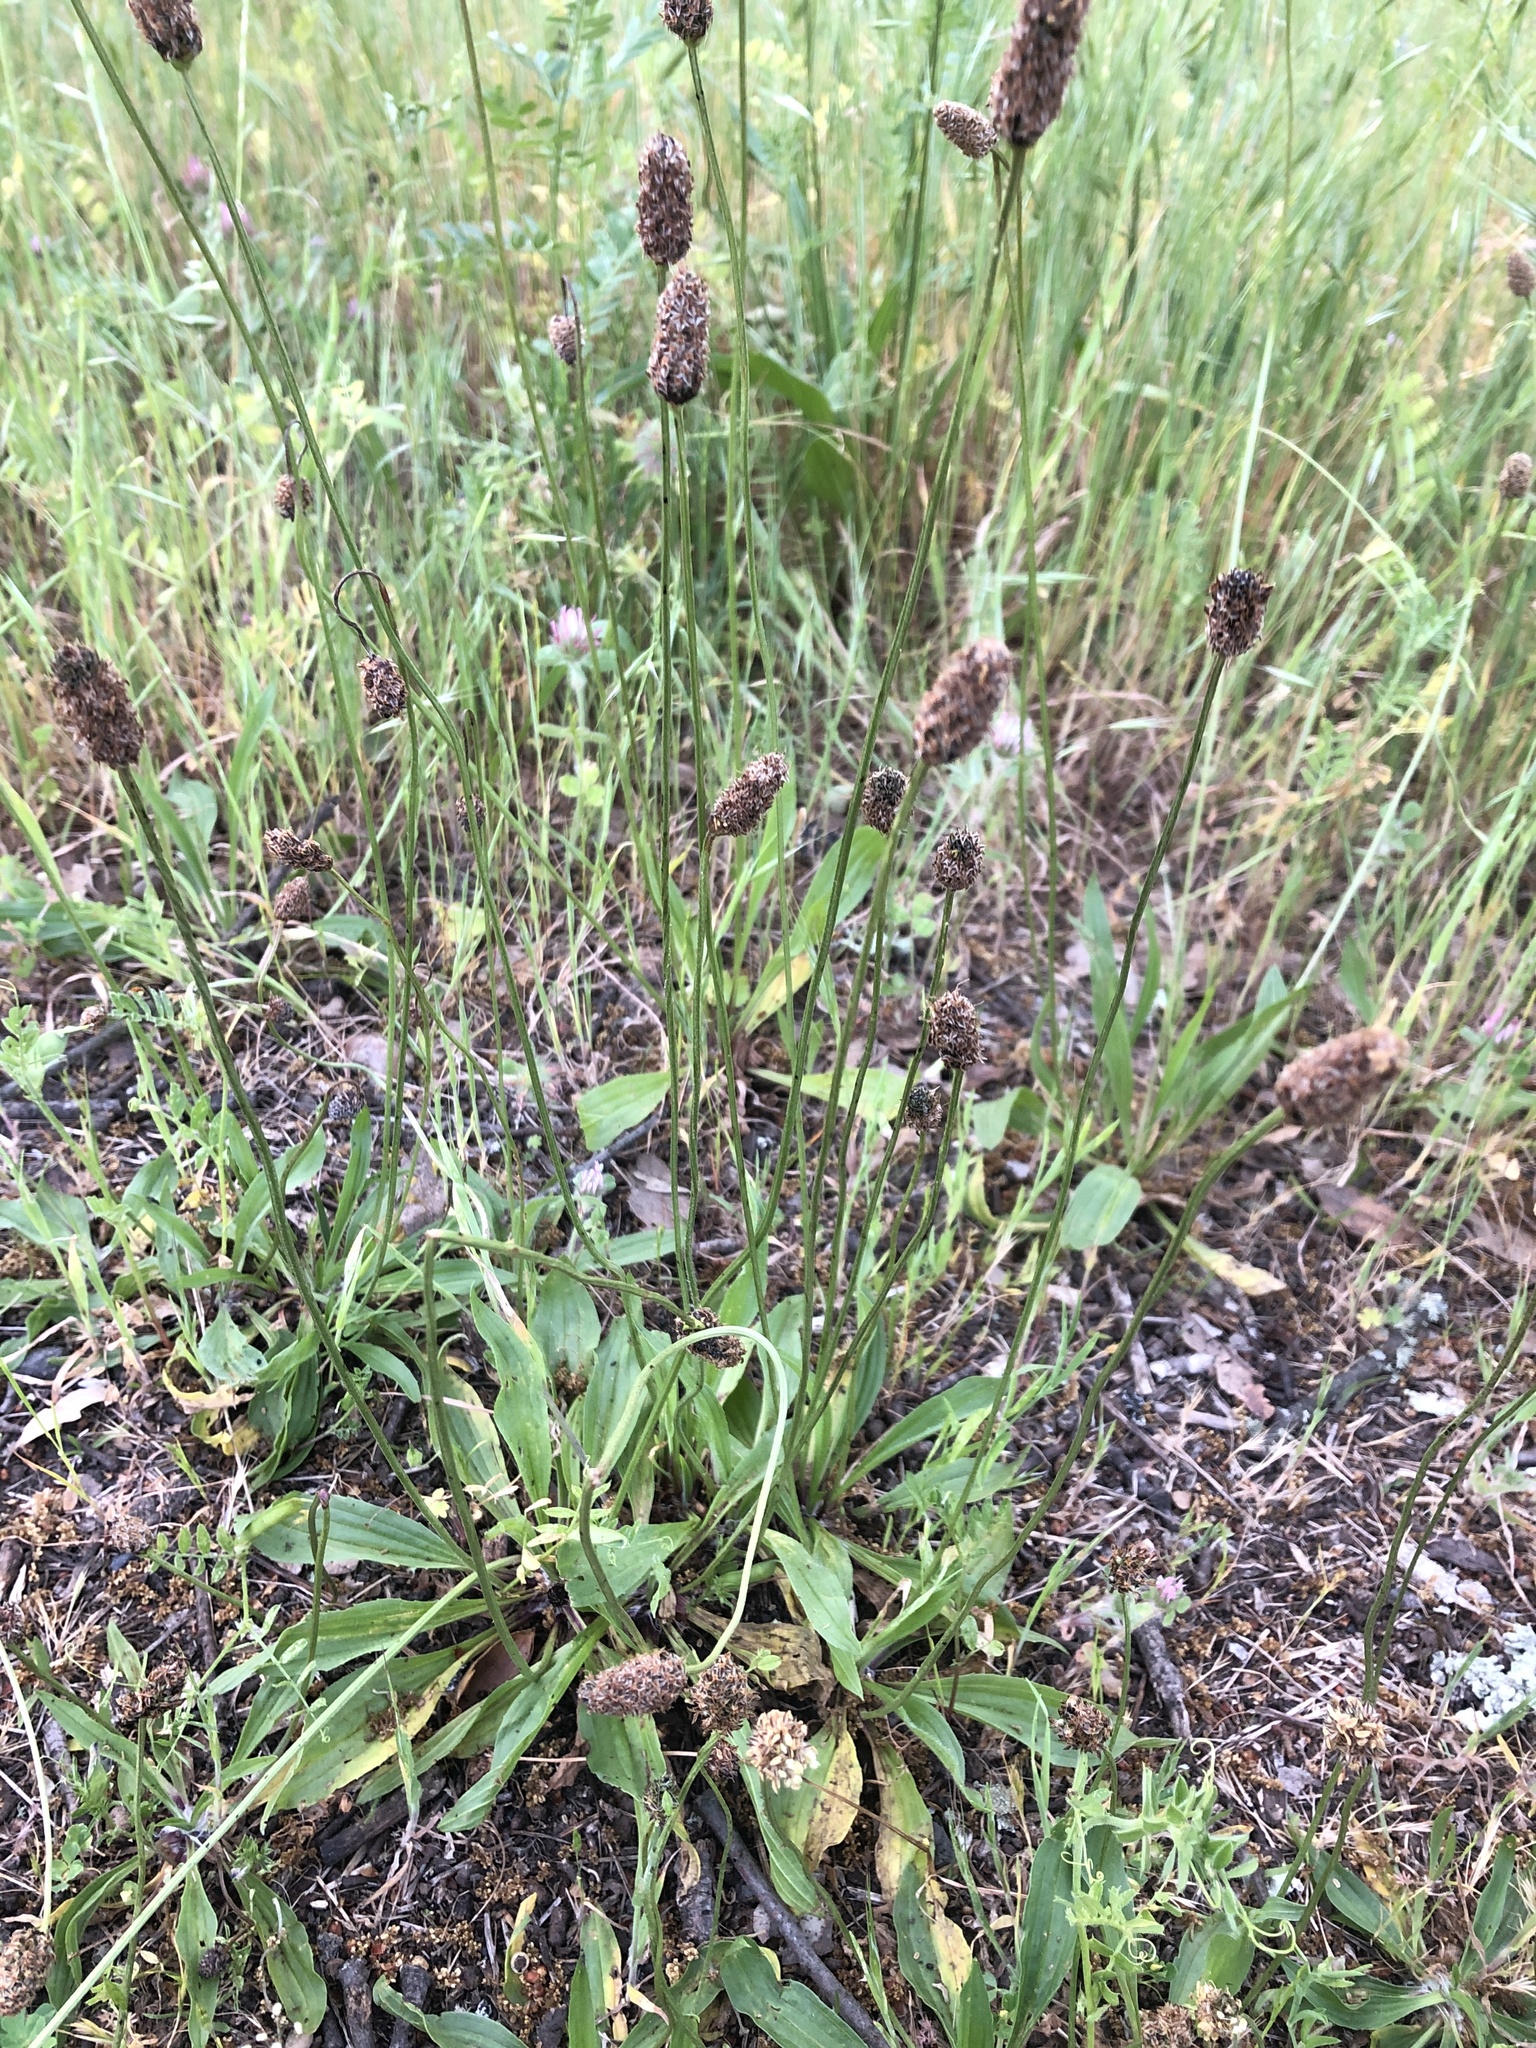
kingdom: Plantae
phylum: Tracheophyta
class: Magnoliopsida
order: Lamiales
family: Plantaginaceae
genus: Plantago
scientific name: Plantago lanceolata
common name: Ribwort plantain
